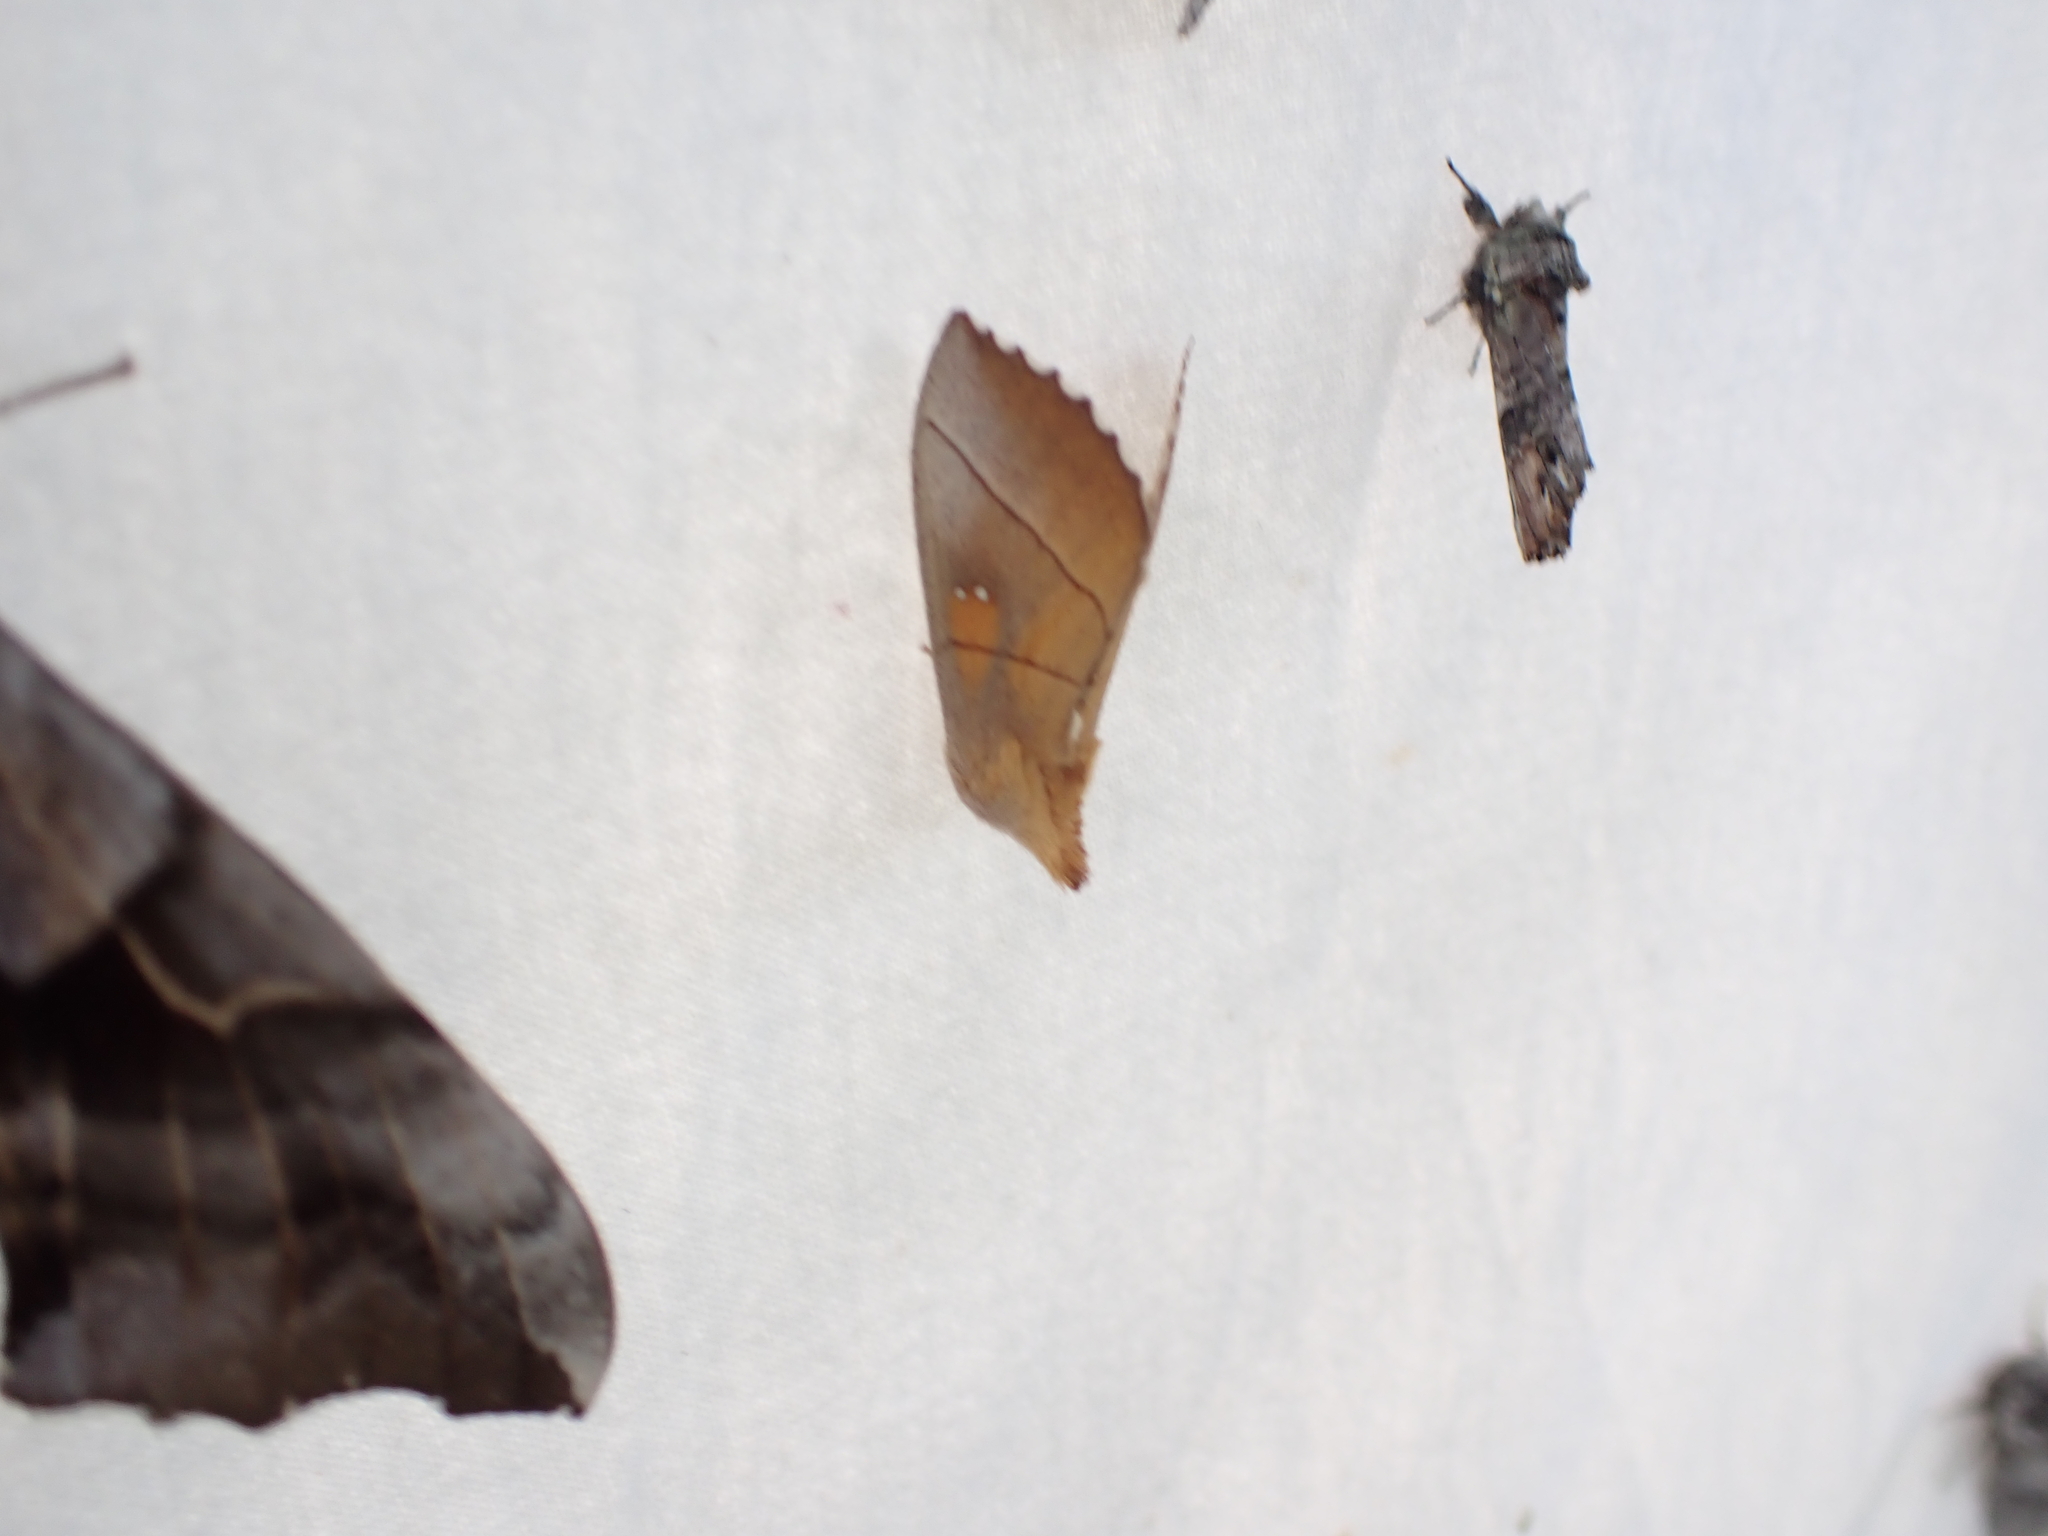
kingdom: Animalia
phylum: Arthropoda
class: Insecta
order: Lepidoptera
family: Notodontidae
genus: Nadata
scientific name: Nadata gibbosa
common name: White-dotted prominent
